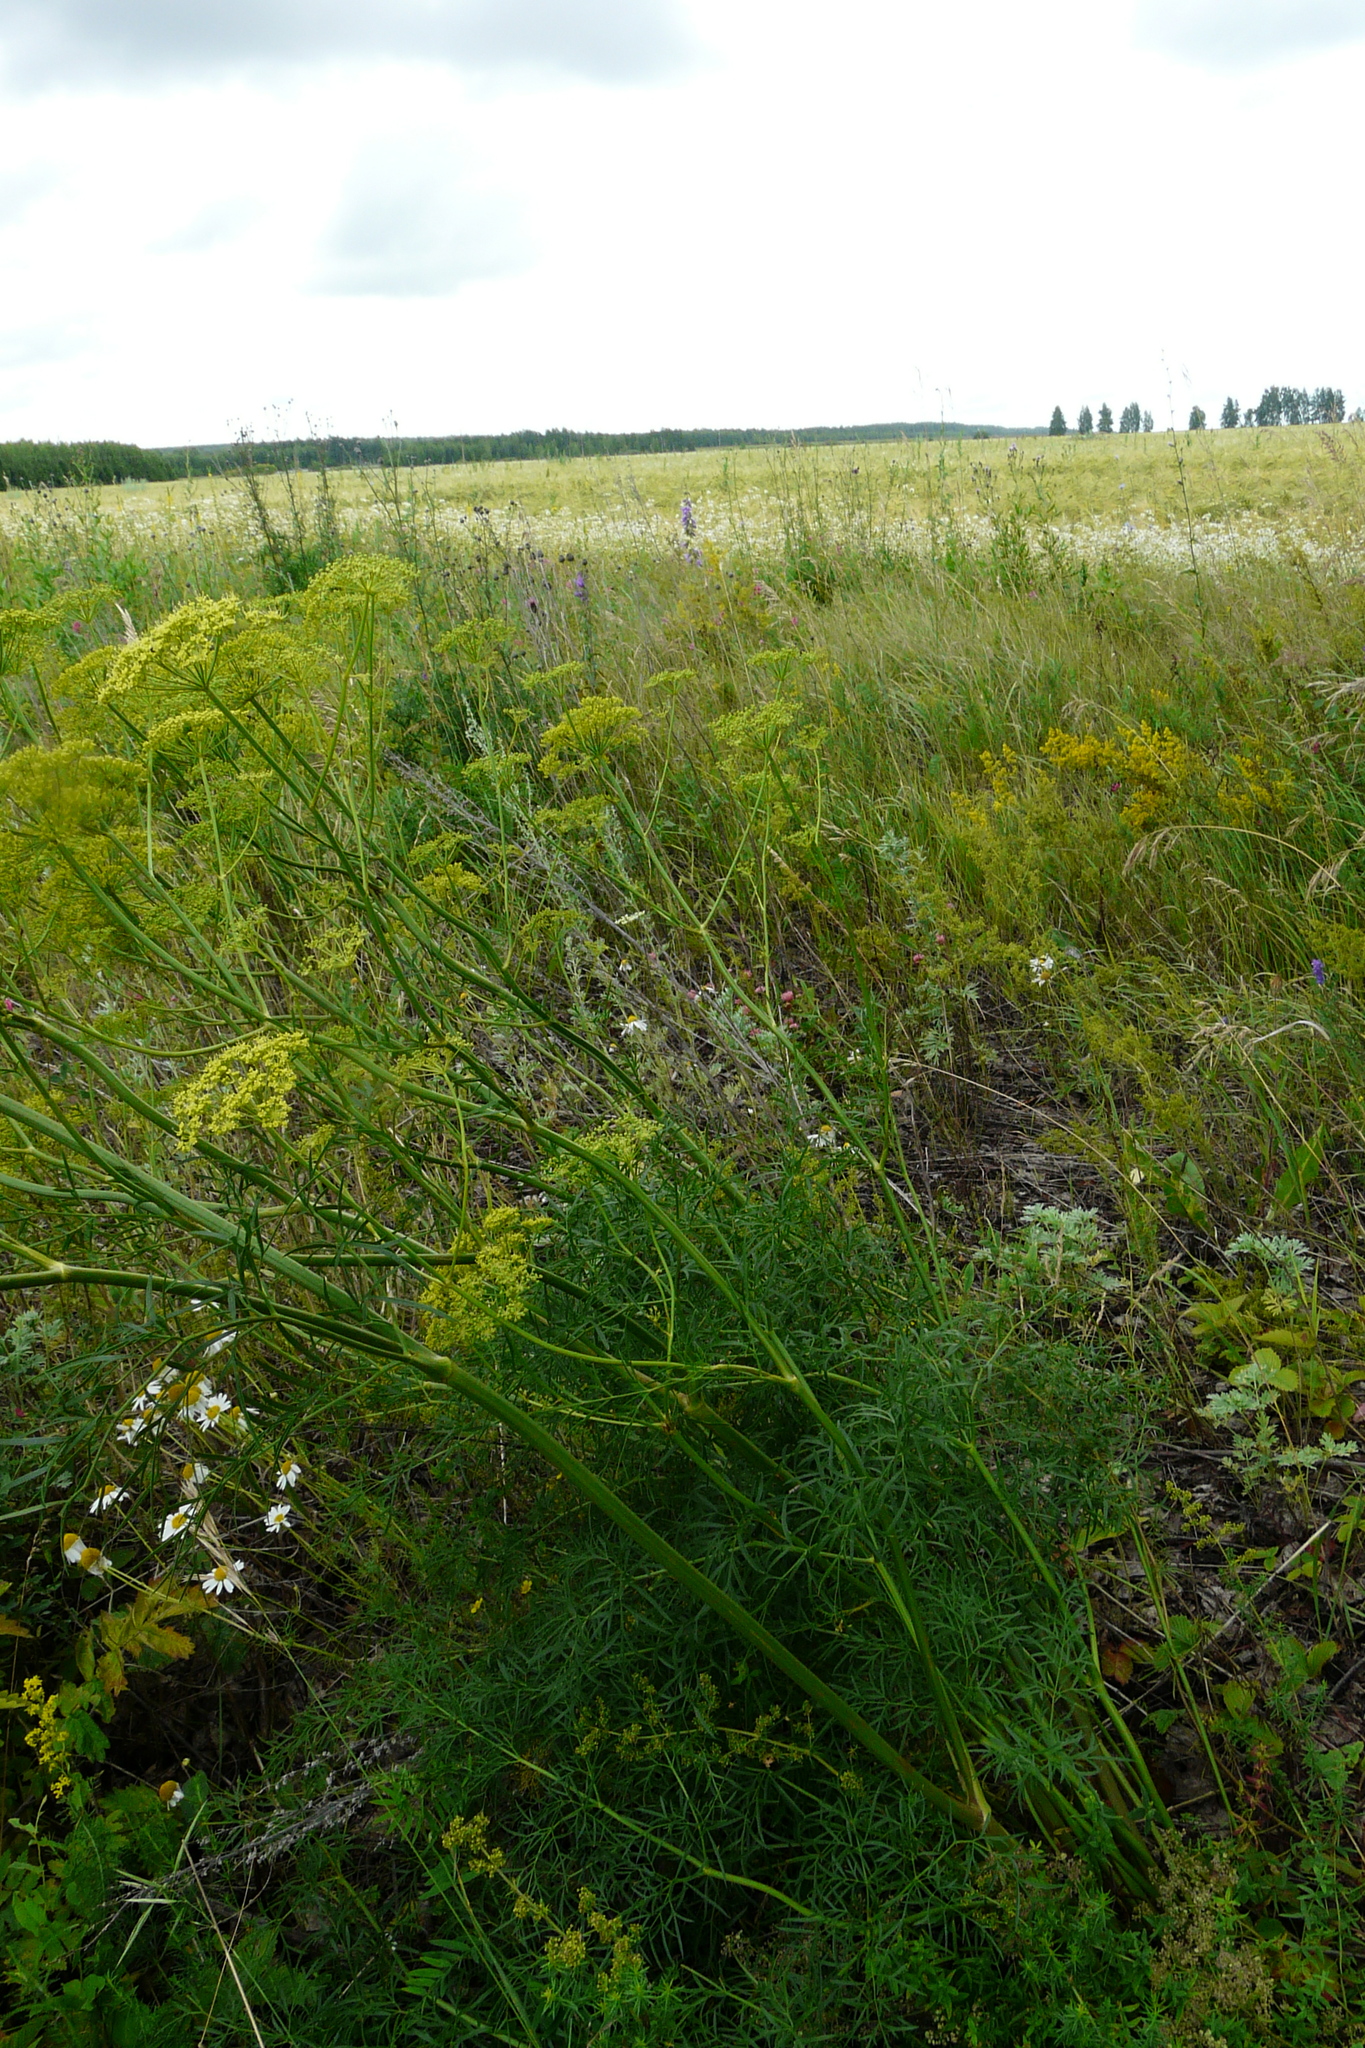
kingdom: Plantae
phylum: Tracheophyta
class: Magnoliopsida
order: Apiales
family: Apiaceae
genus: Silaum
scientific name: Silaum silaus
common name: Pepper-saxifrage
